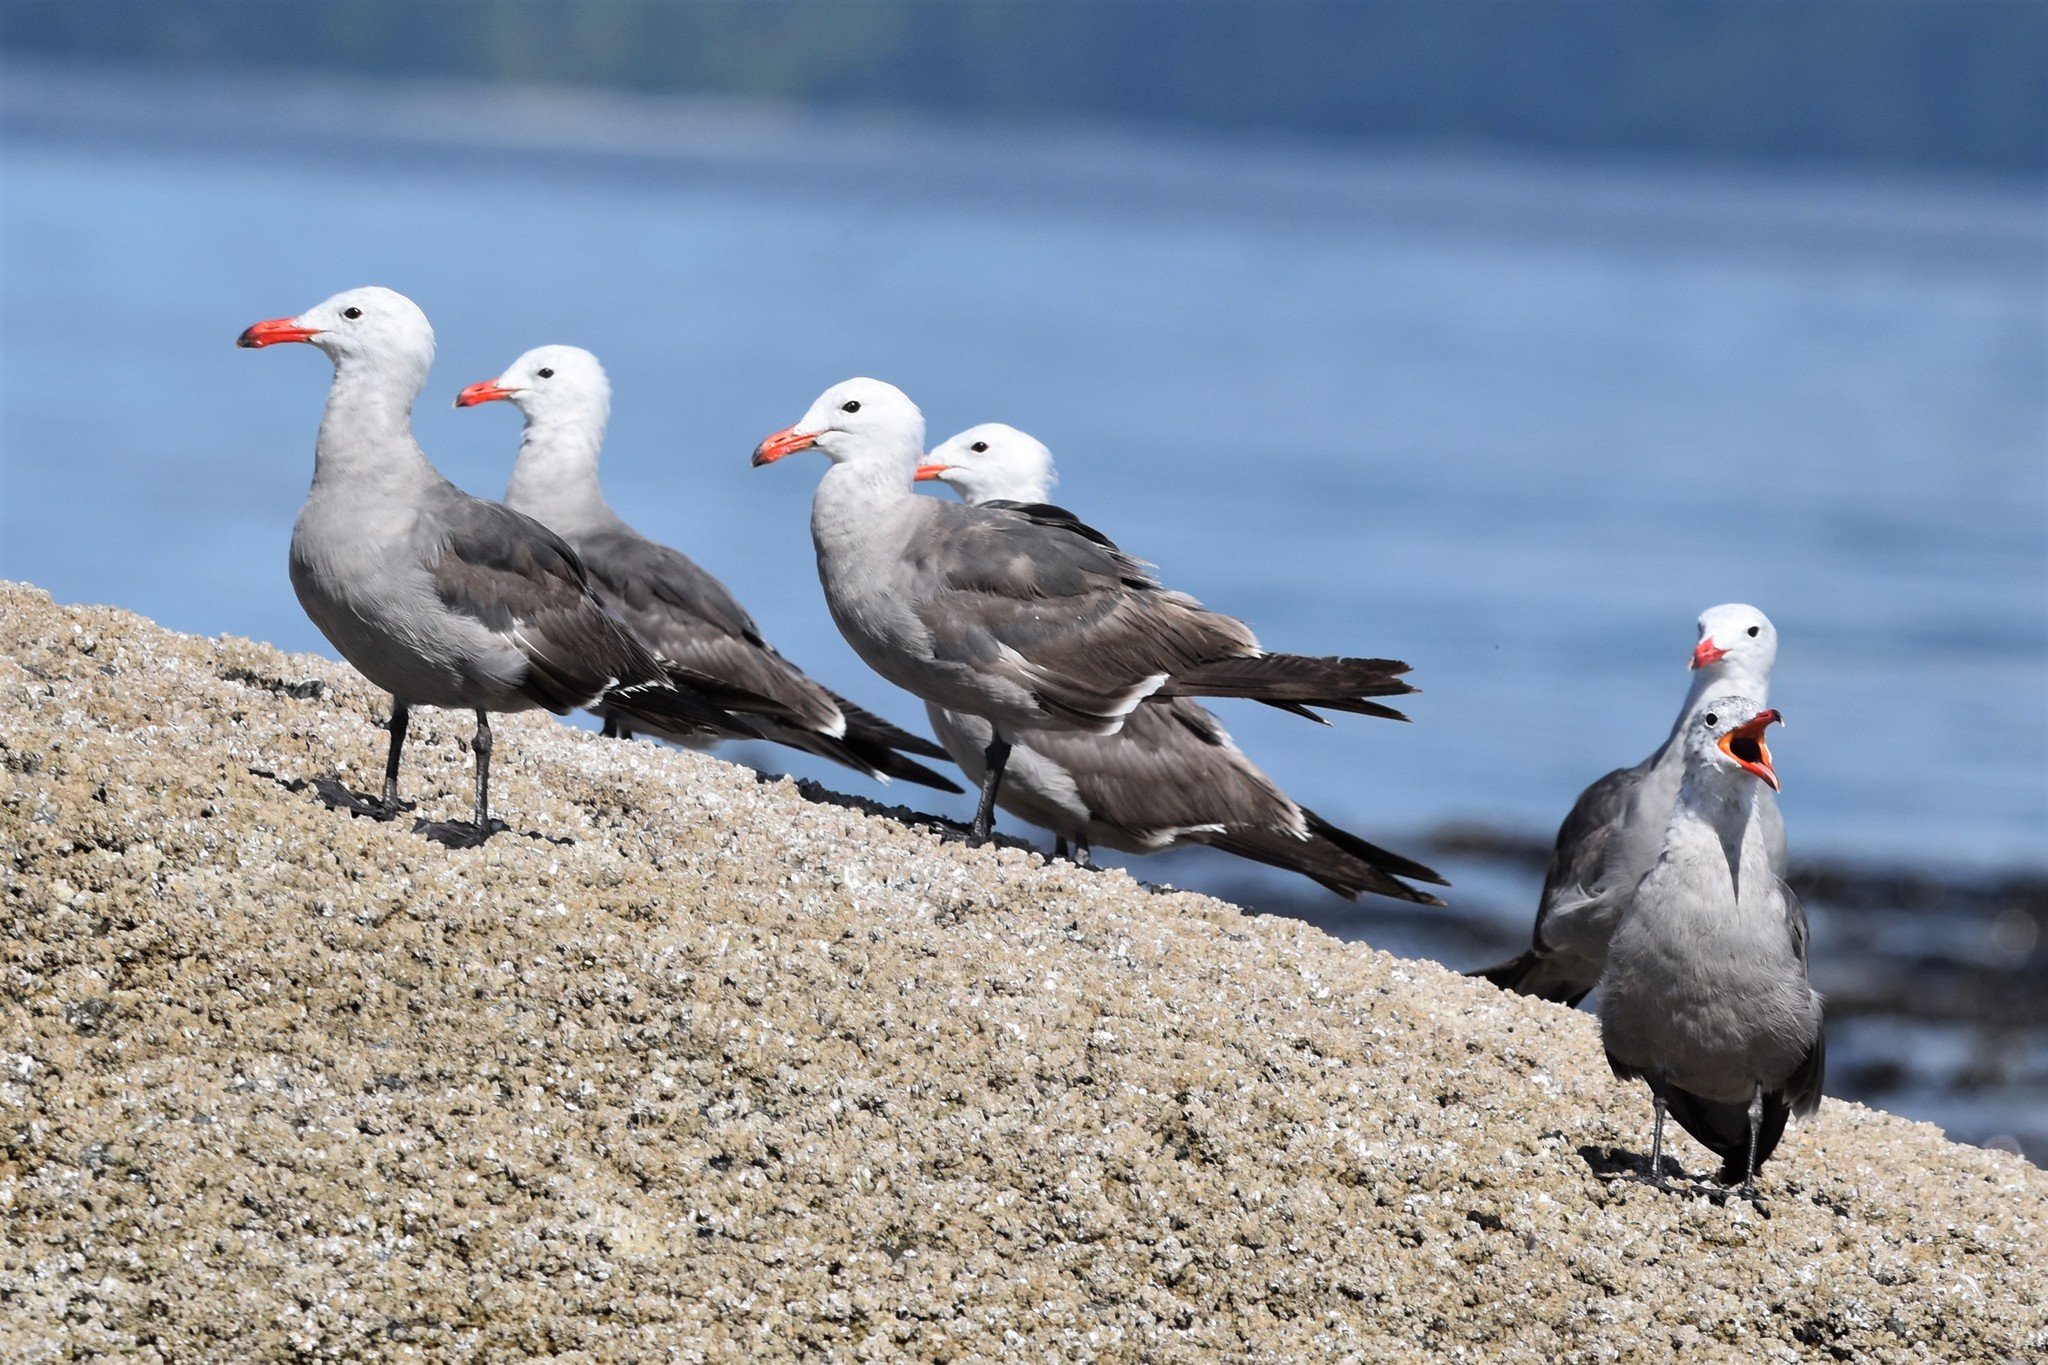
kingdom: Animalia
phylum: Chordata
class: Aves
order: Charadriiformes
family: Laridae
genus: Larus
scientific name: Larus heermanni
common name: Heermann's gull
